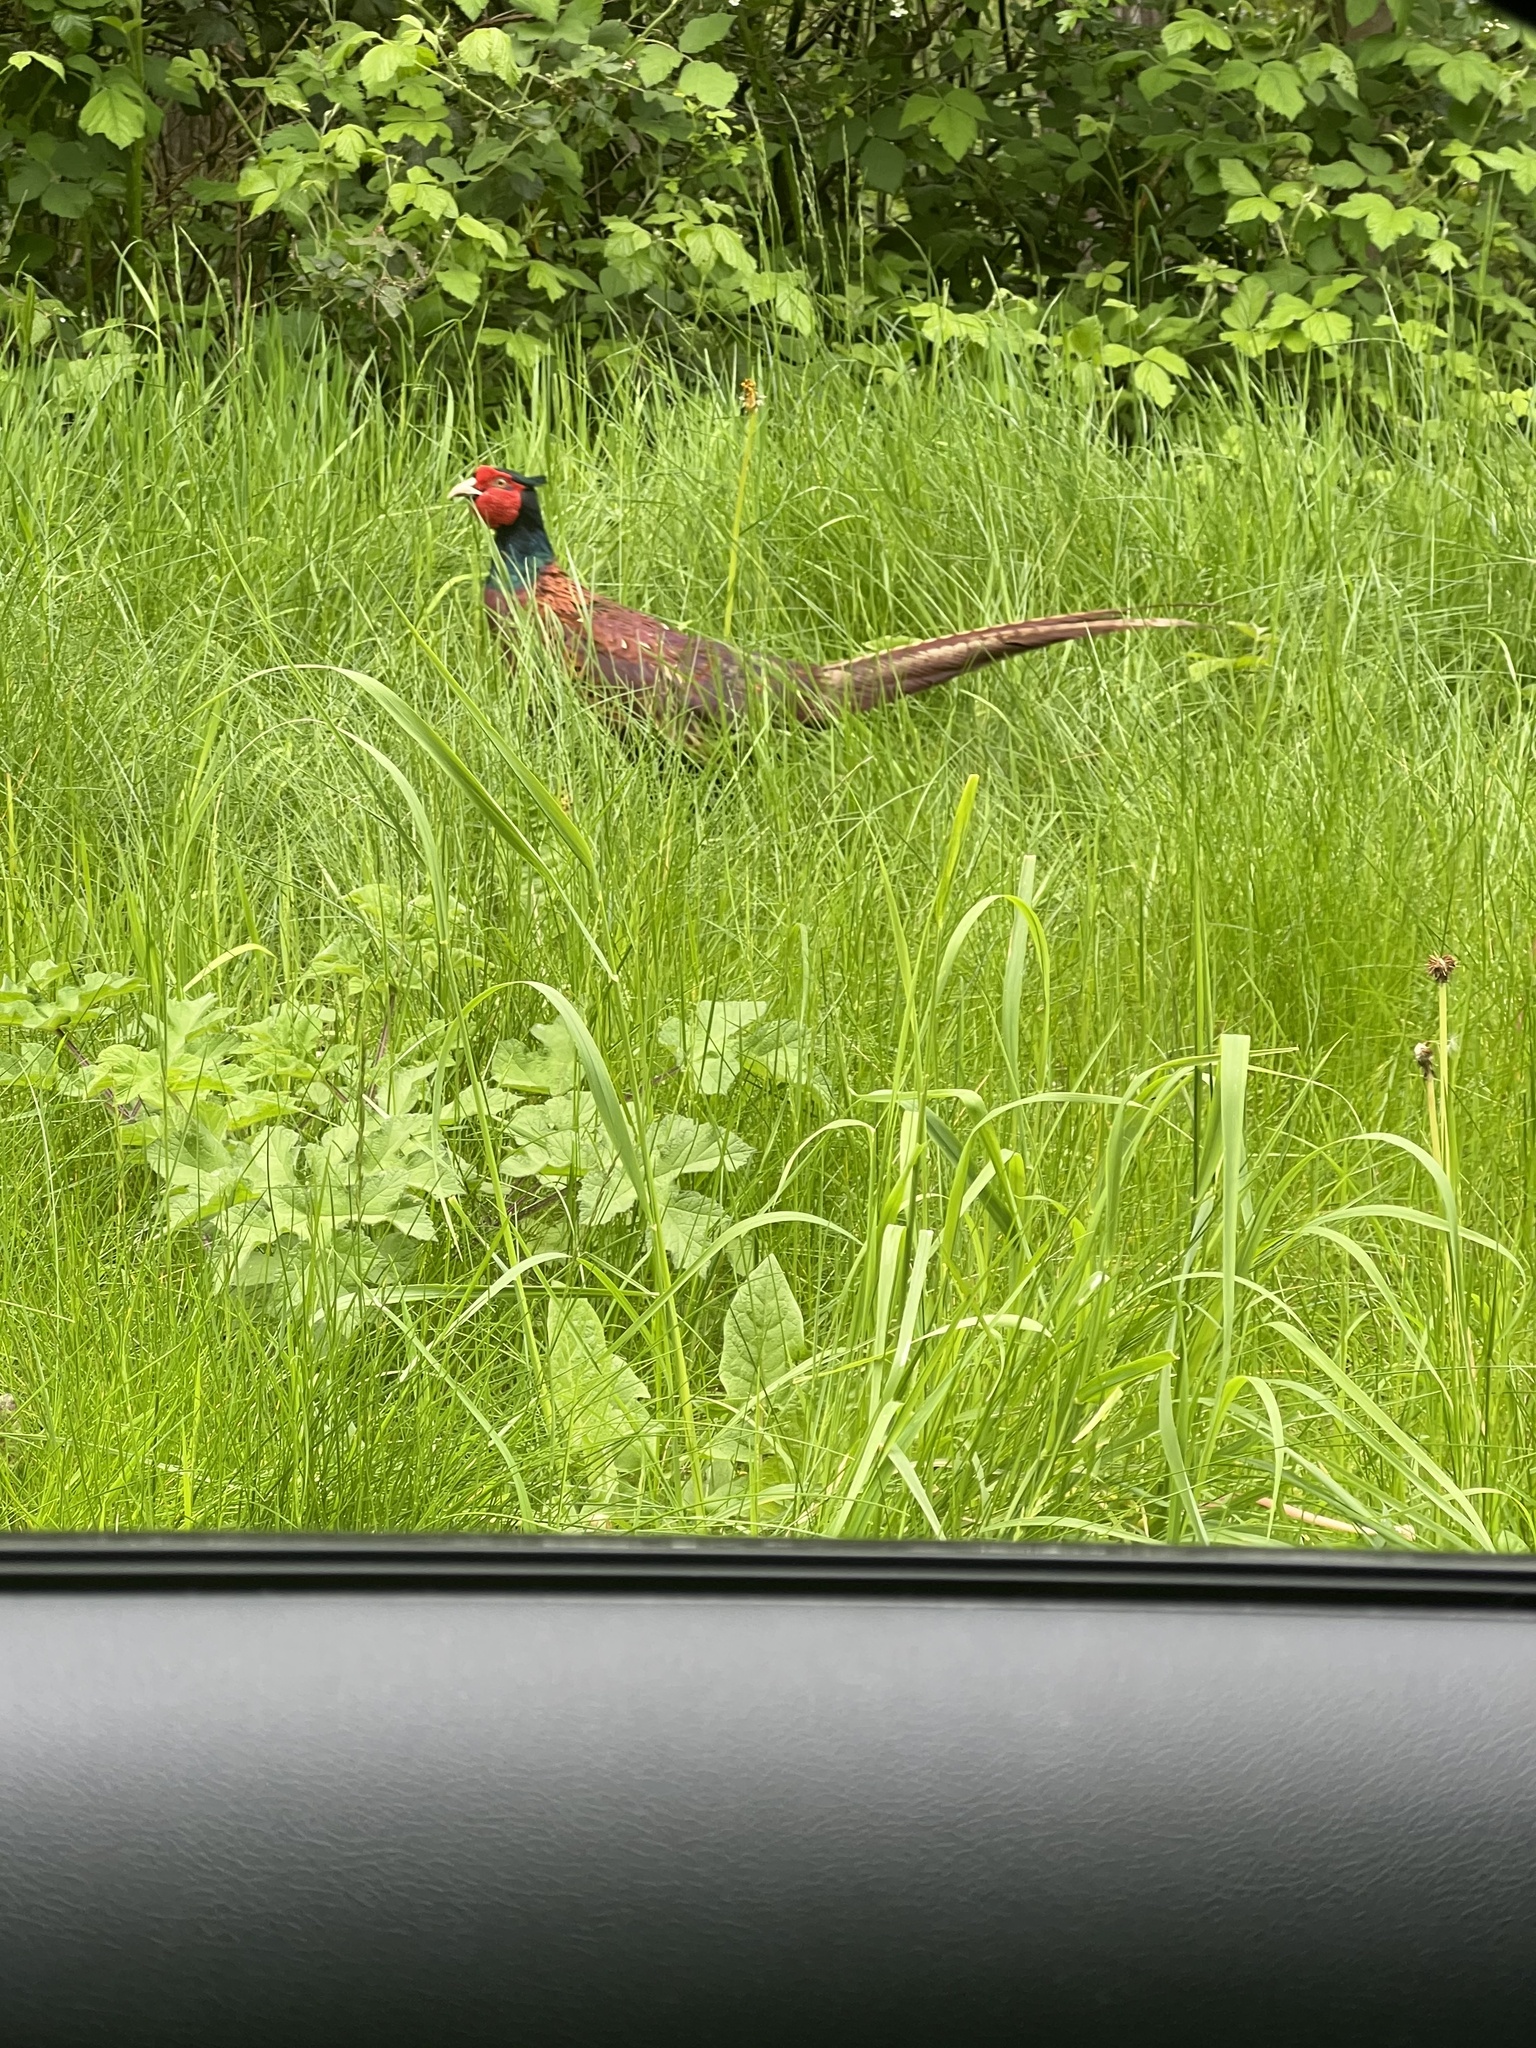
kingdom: Animalia
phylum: Chordata
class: Aves
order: Galliformes
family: Phasianidae
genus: Phasianus
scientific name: Phasianus colchicus
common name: Common pheasant
